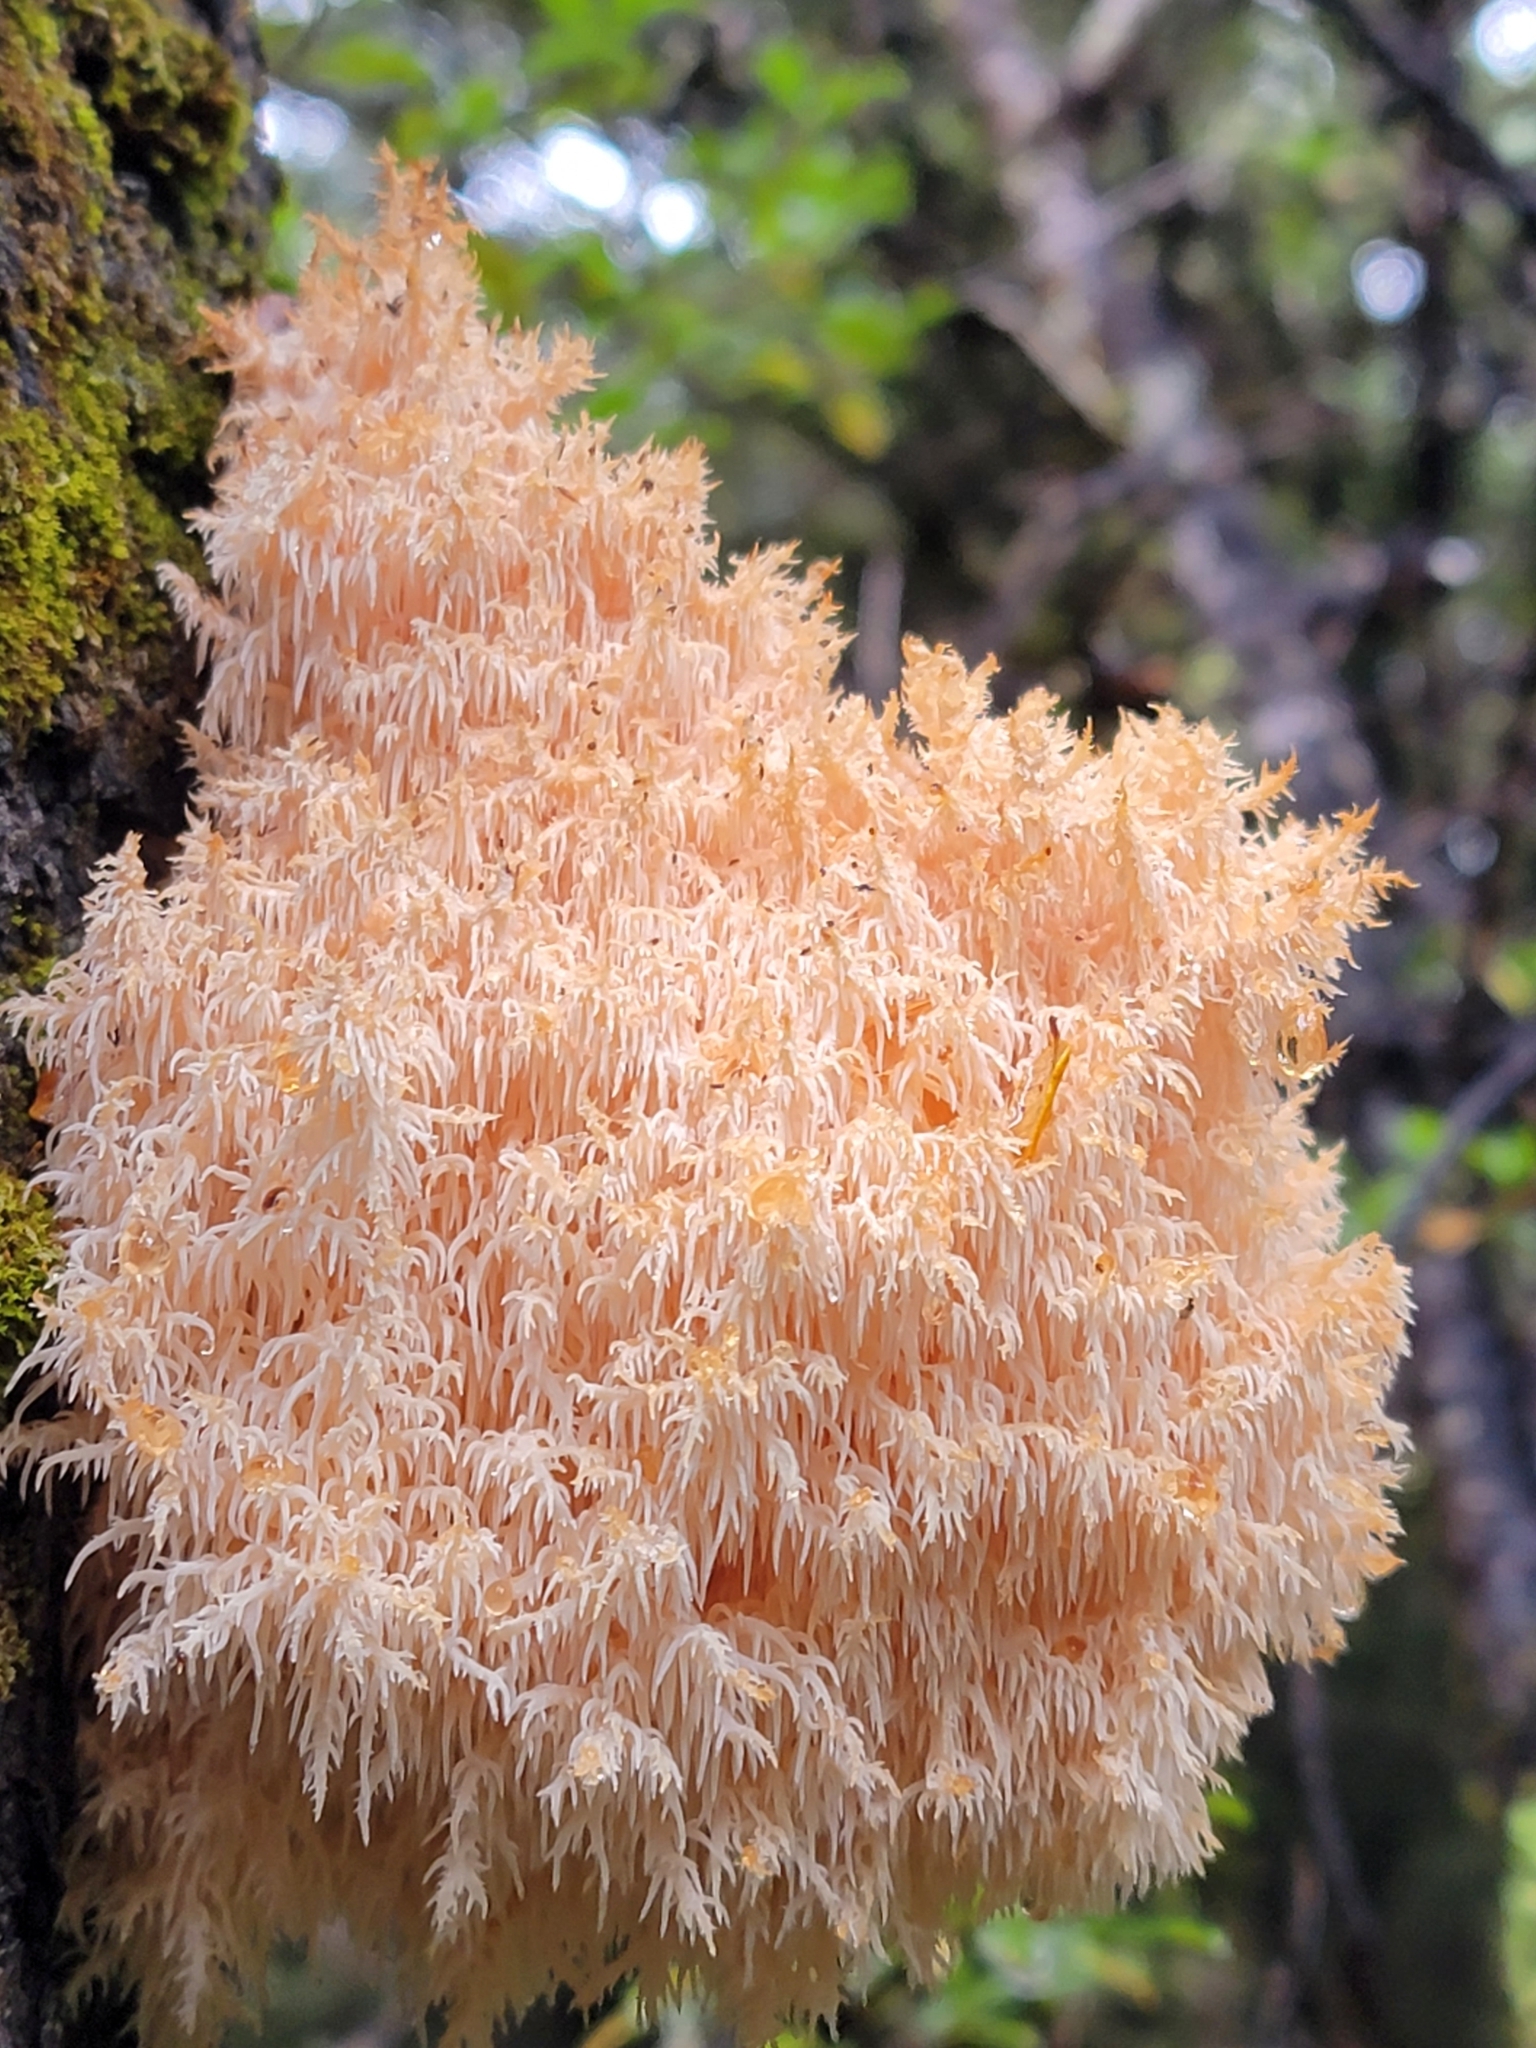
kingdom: Fungi
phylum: Basidiomycota
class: Agaricomycetes
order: Russulales
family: Hericiaceae
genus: Hericium
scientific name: Hericium novae-zealandiae
